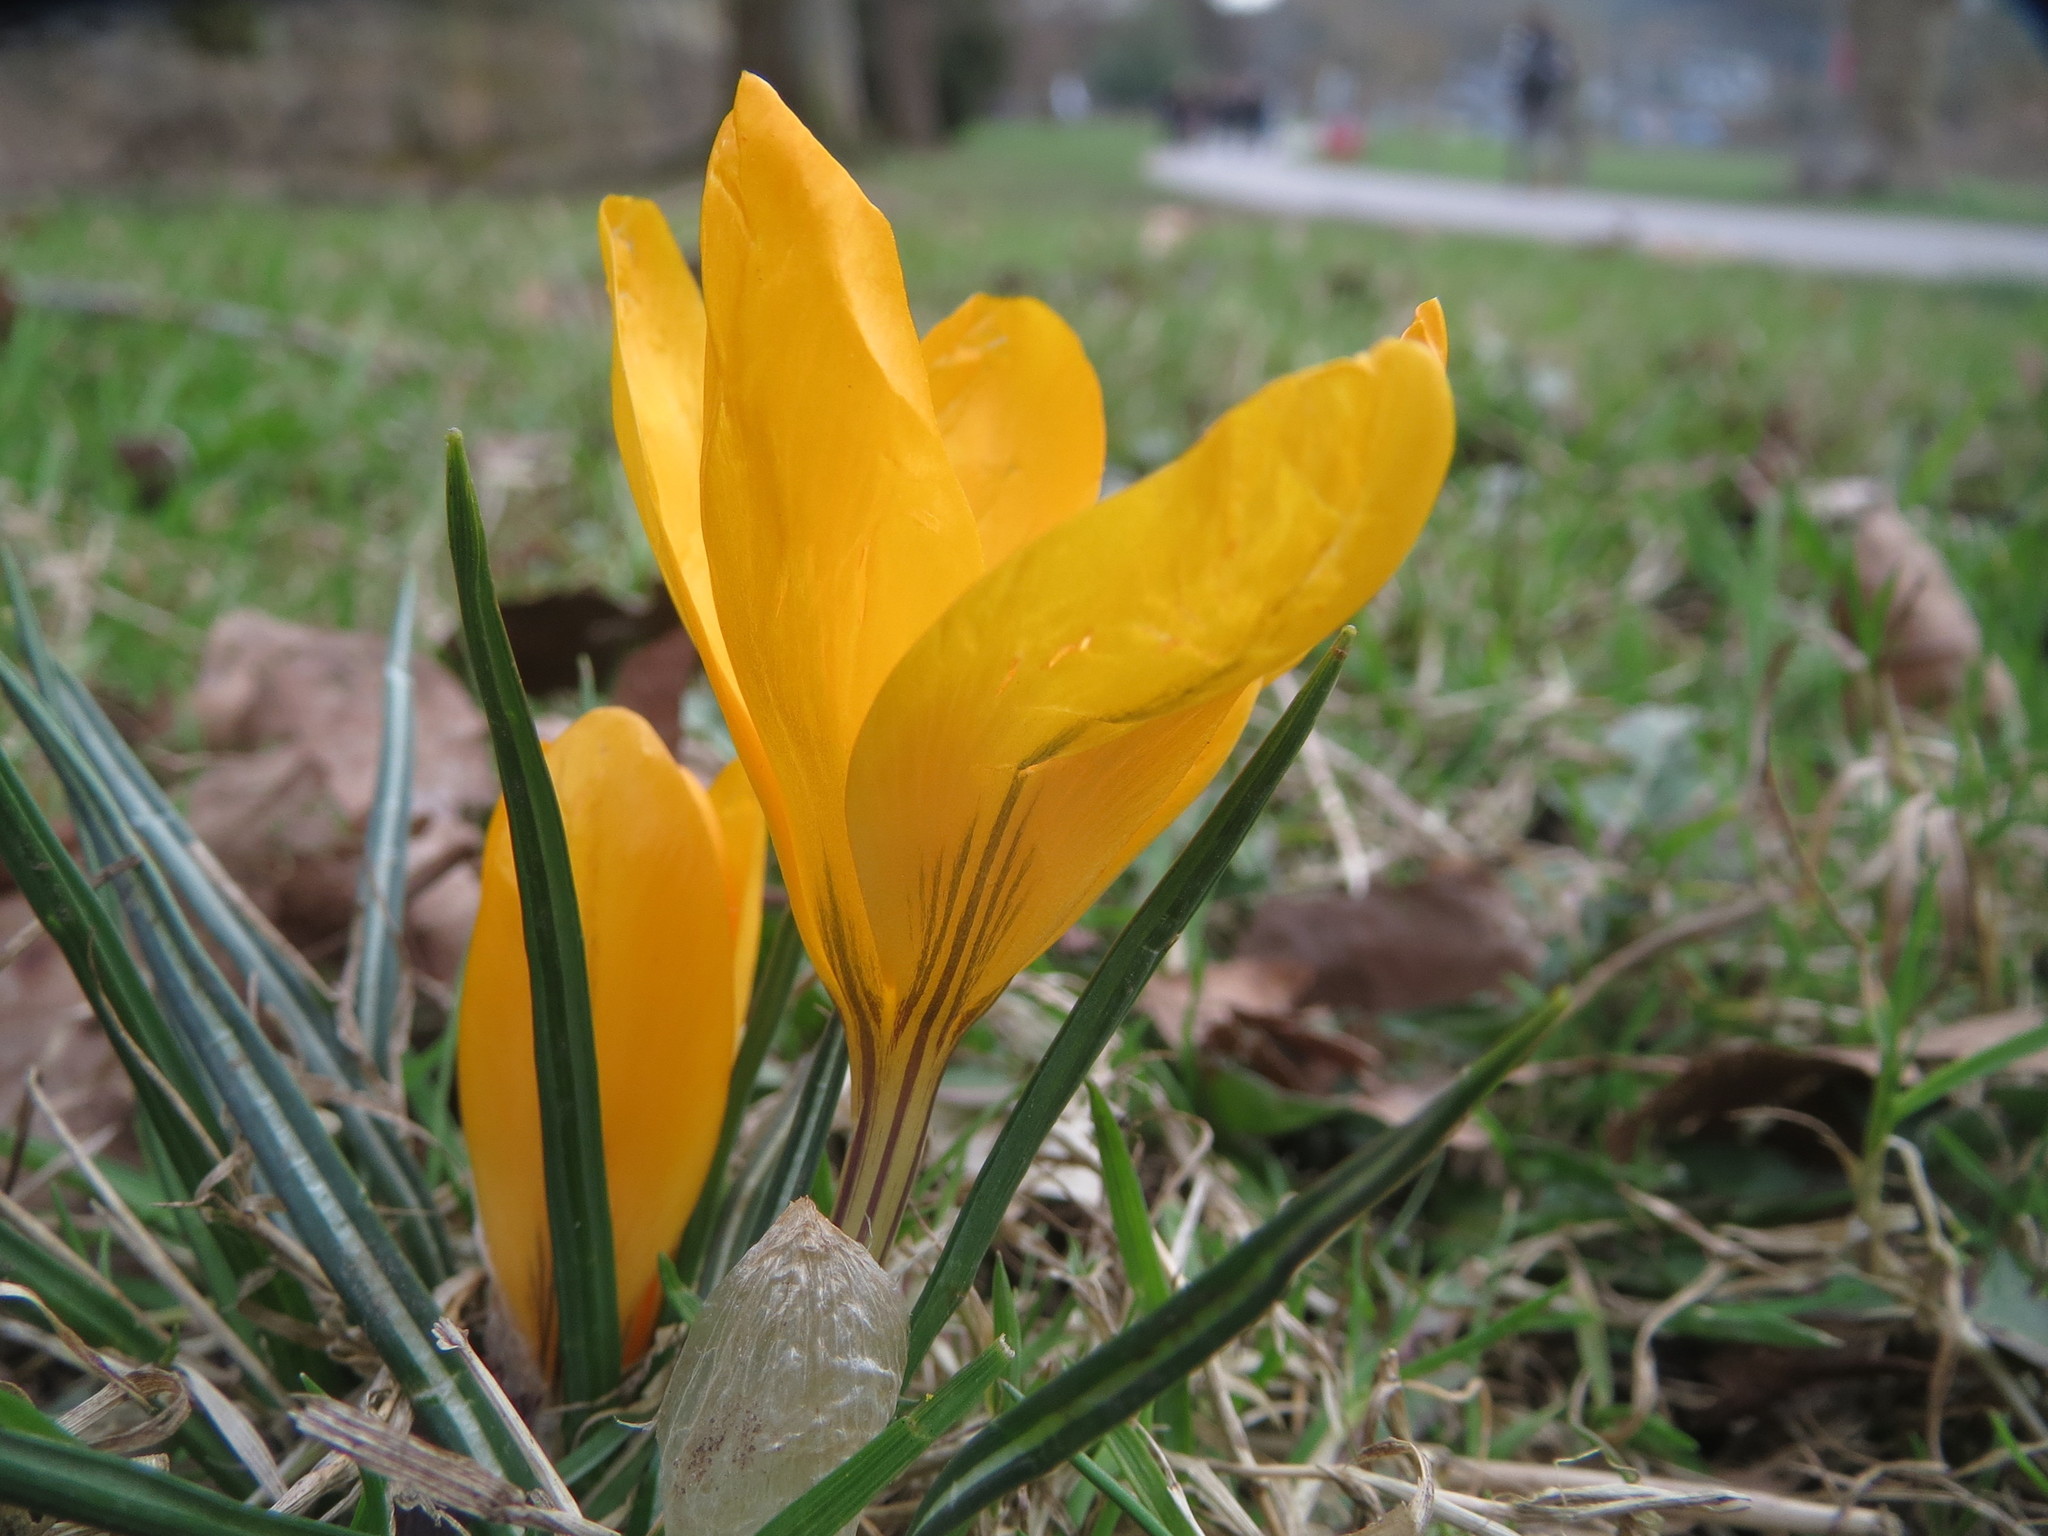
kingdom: Plantae
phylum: Tracheophyta
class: Liliopsida
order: Asparagales
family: Iridaceae
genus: Crocus
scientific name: Crocus luteus
